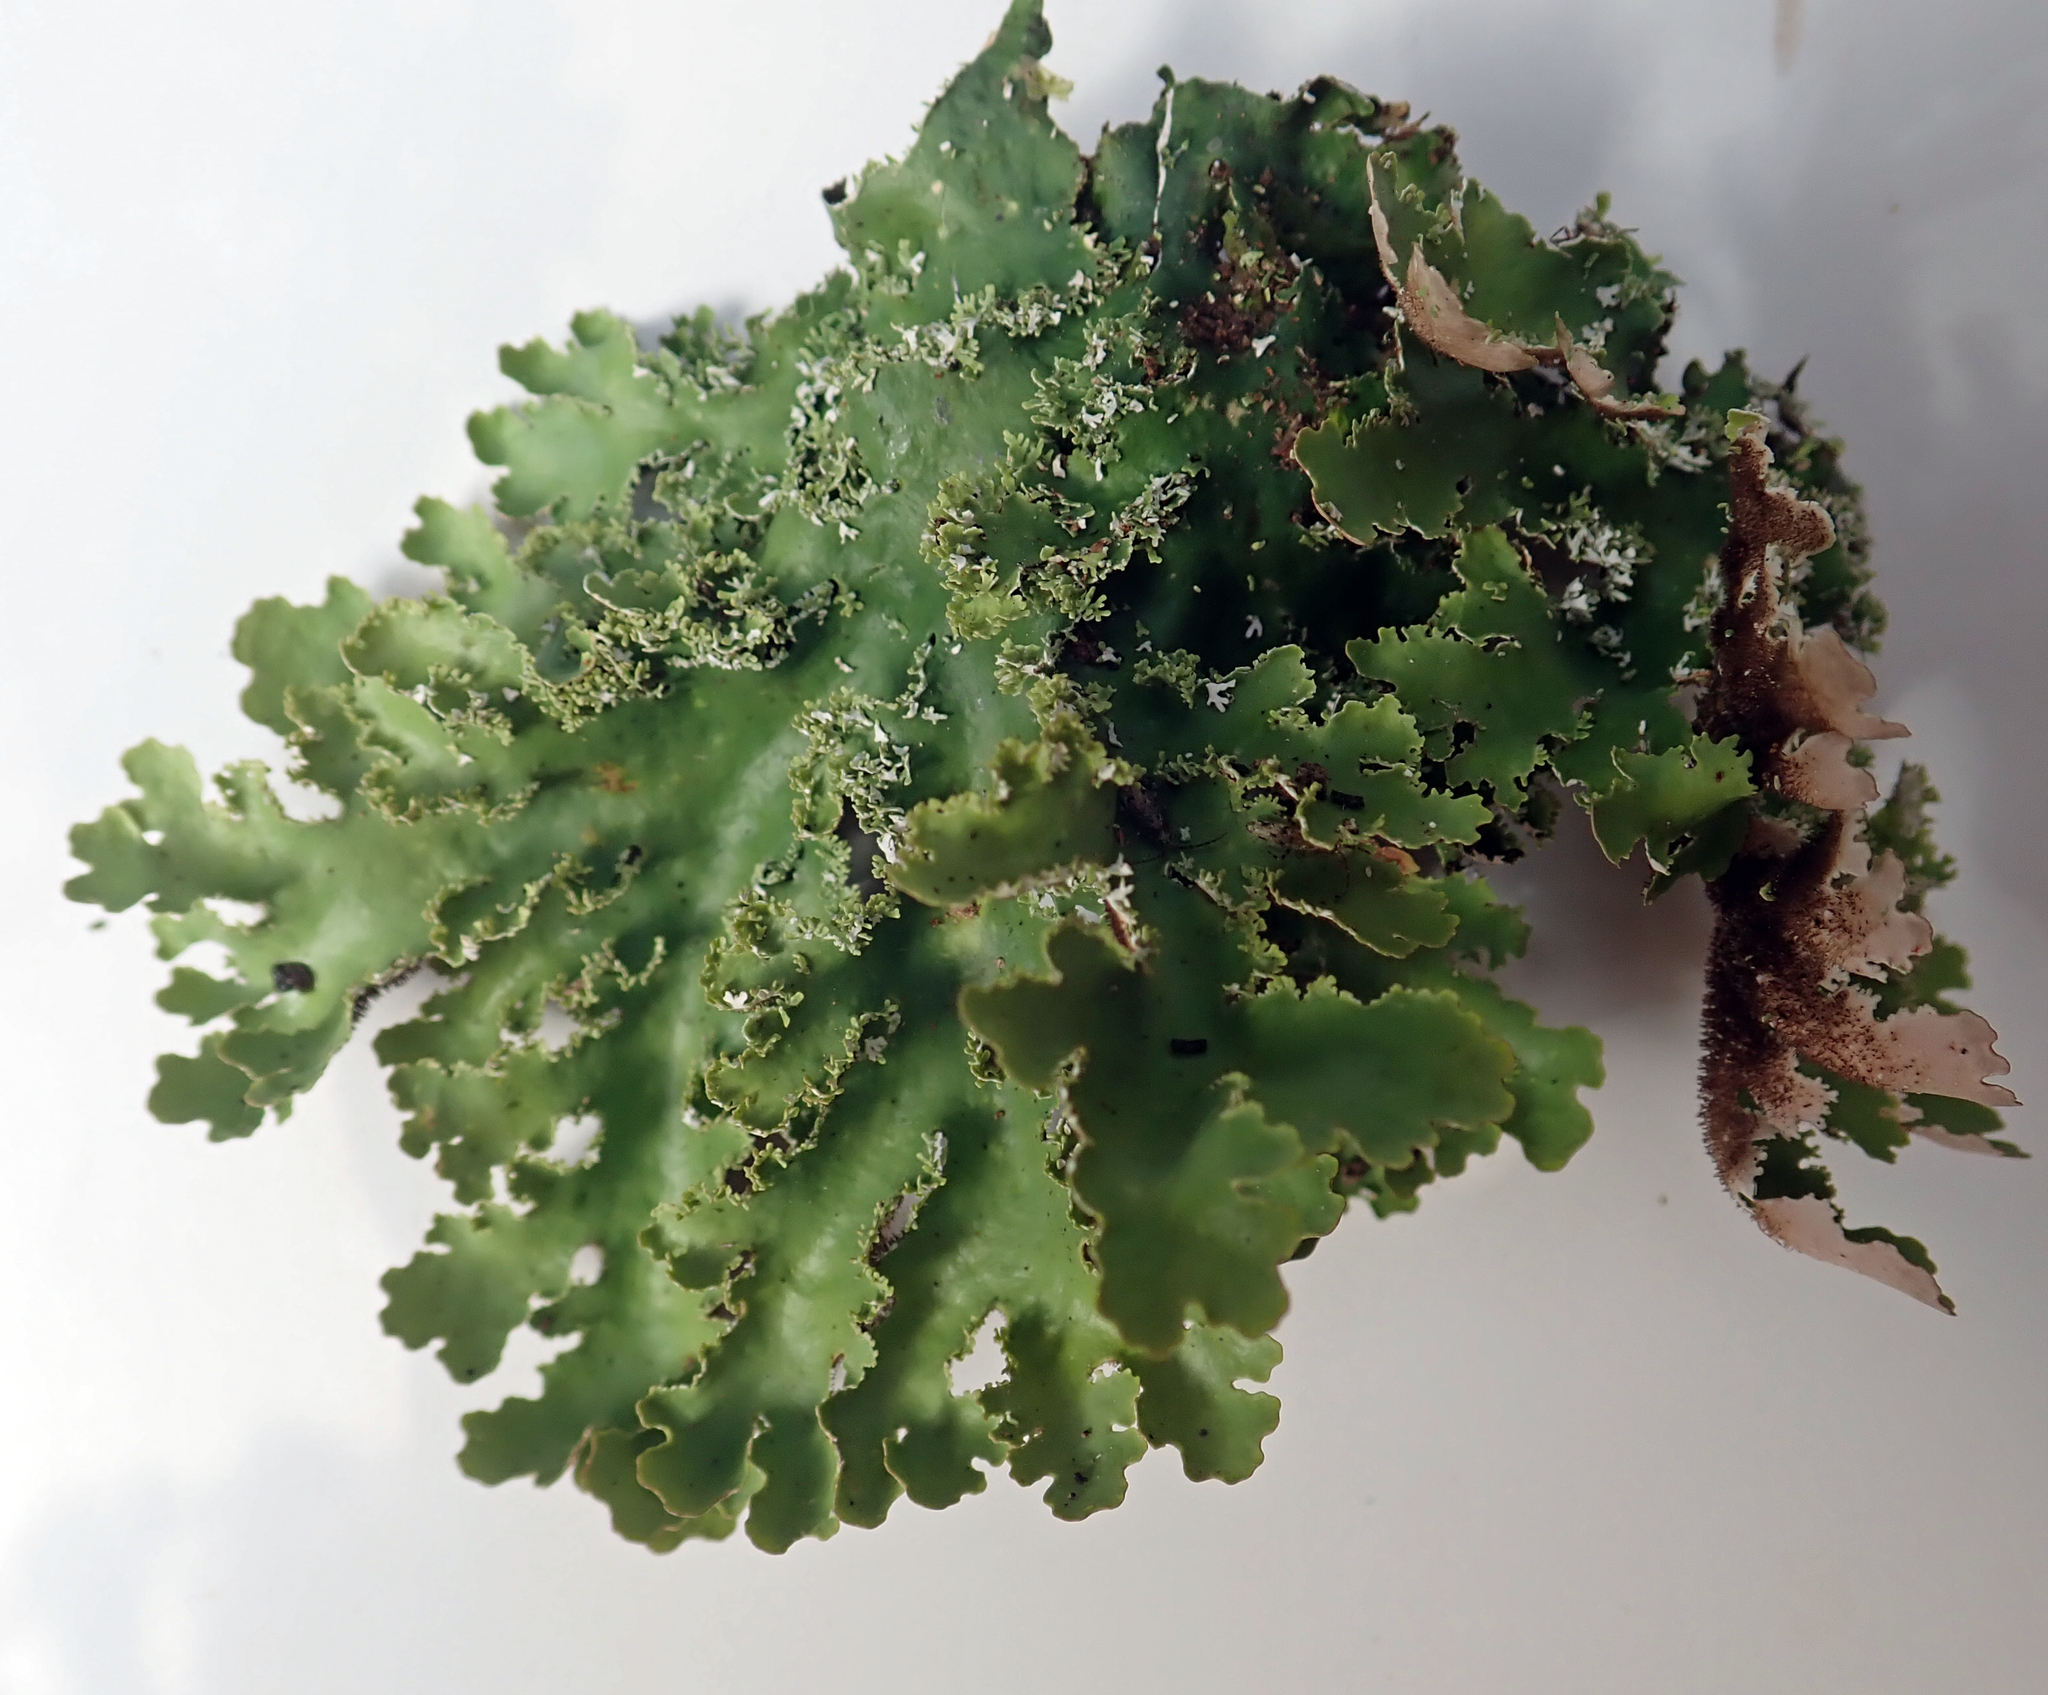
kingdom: Fungi
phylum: Ascomycota
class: Lecanoromycetes
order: Peltigerales
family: Lobariaceae
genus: Pseudocyphellaria
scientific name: Pseudocyphellaria glabra
